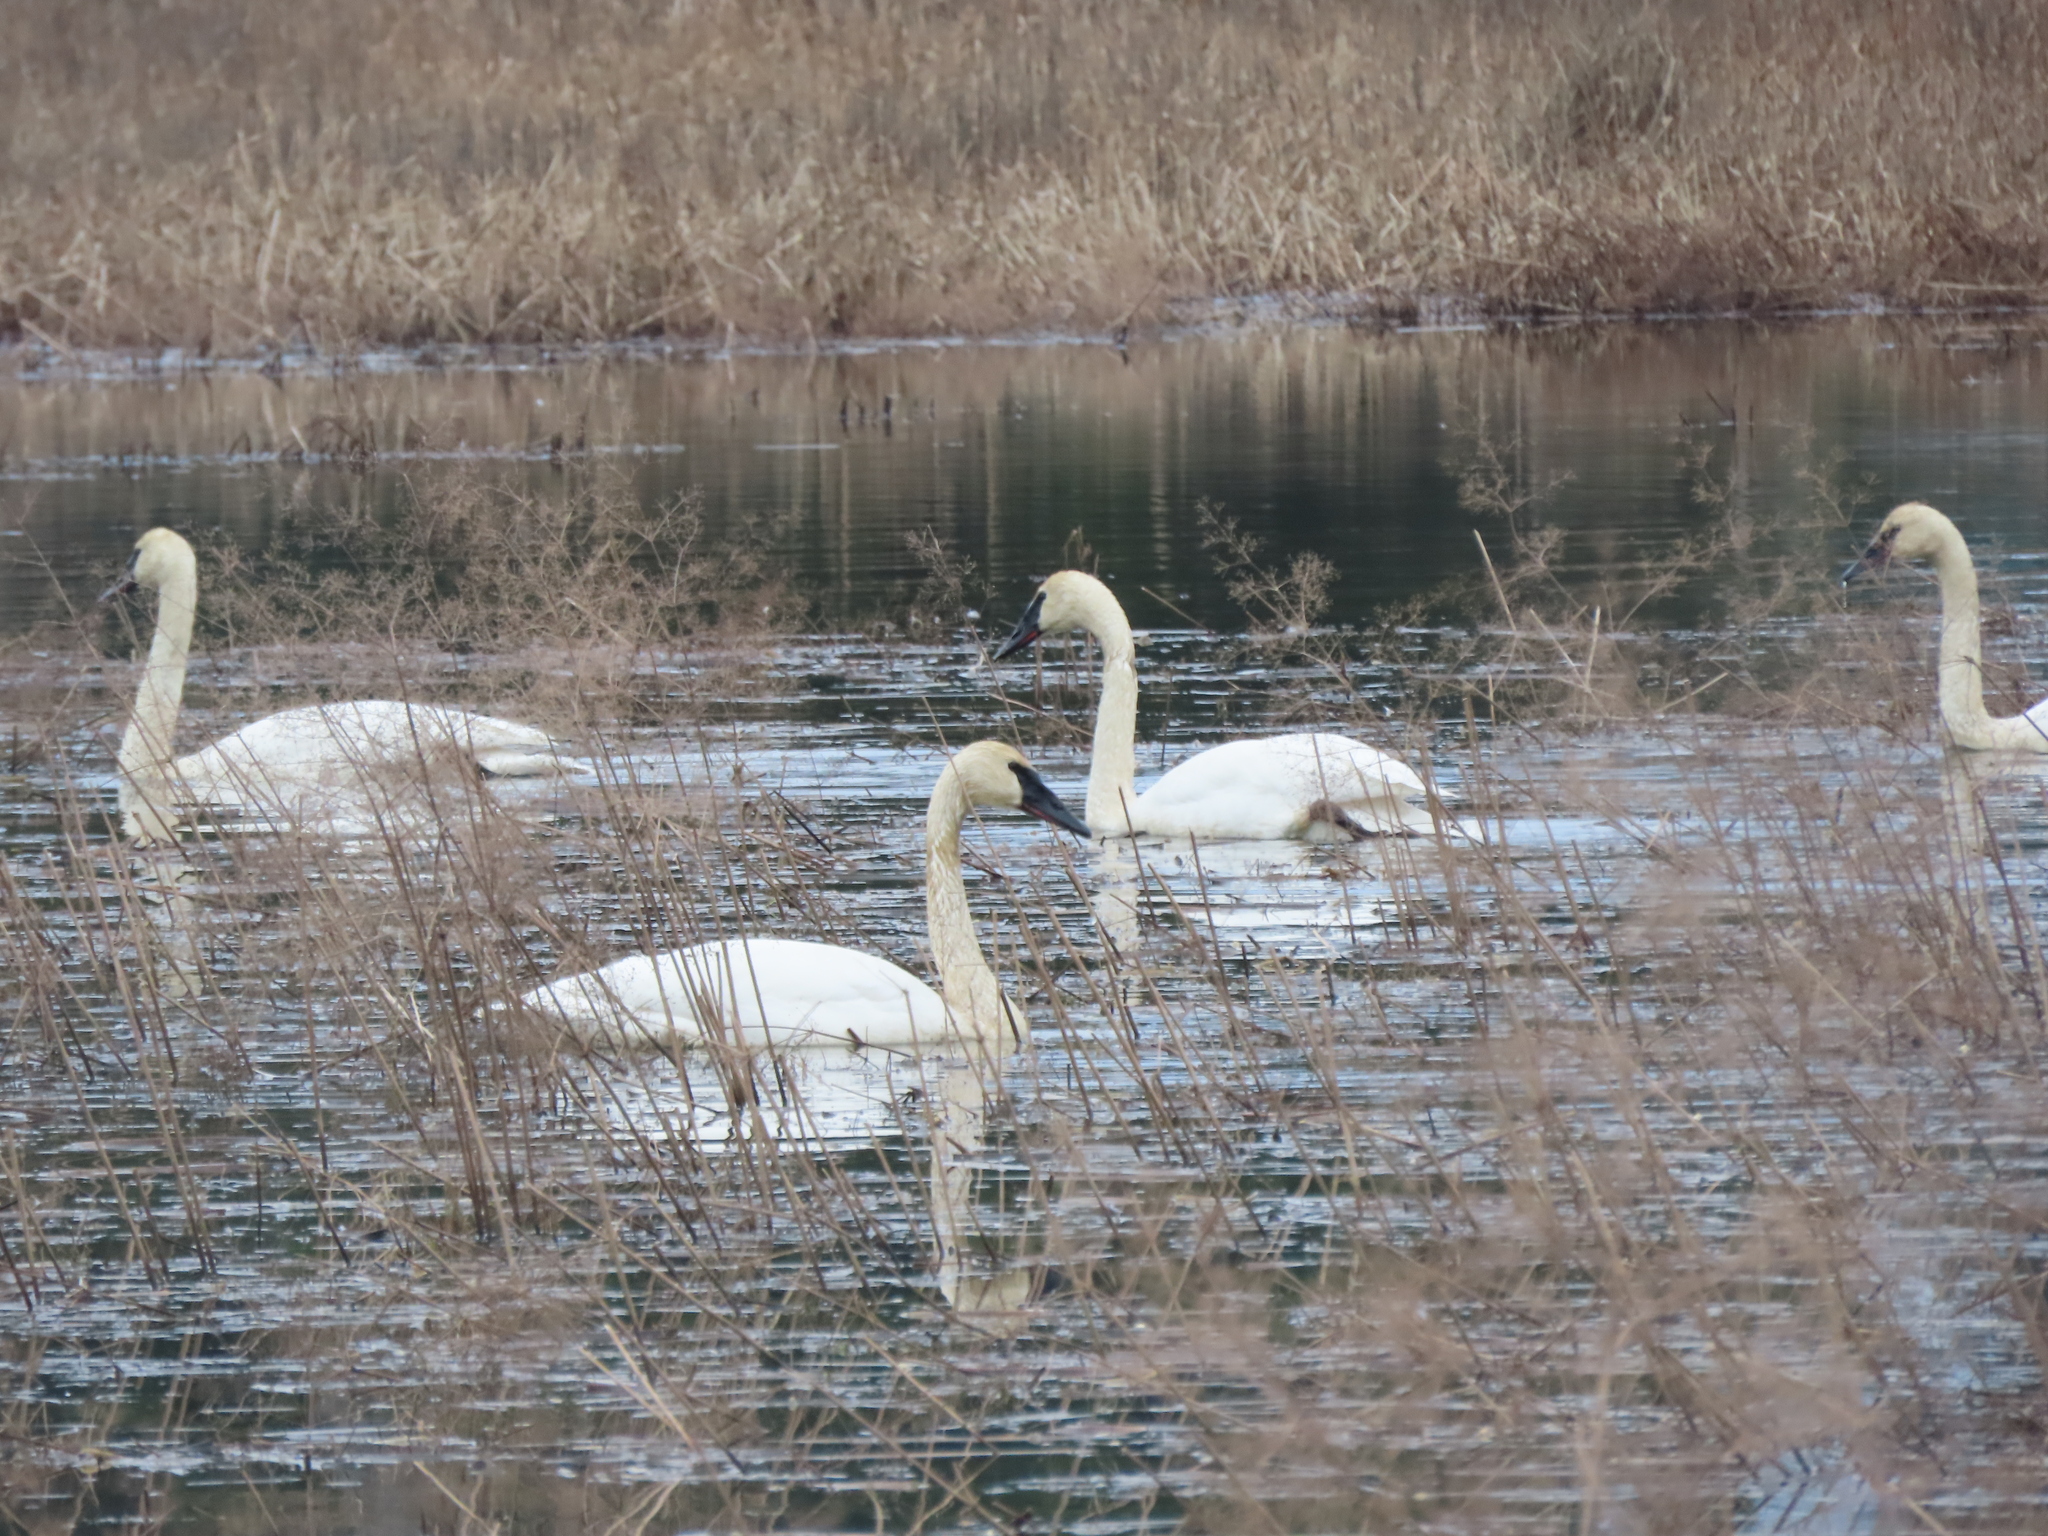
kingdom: Animalia
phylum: Chordata
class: Aves
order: Anseriformes
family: Anatidae
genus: Cygnus
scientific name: Cygnus buccinator
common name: Trumpeter swan
